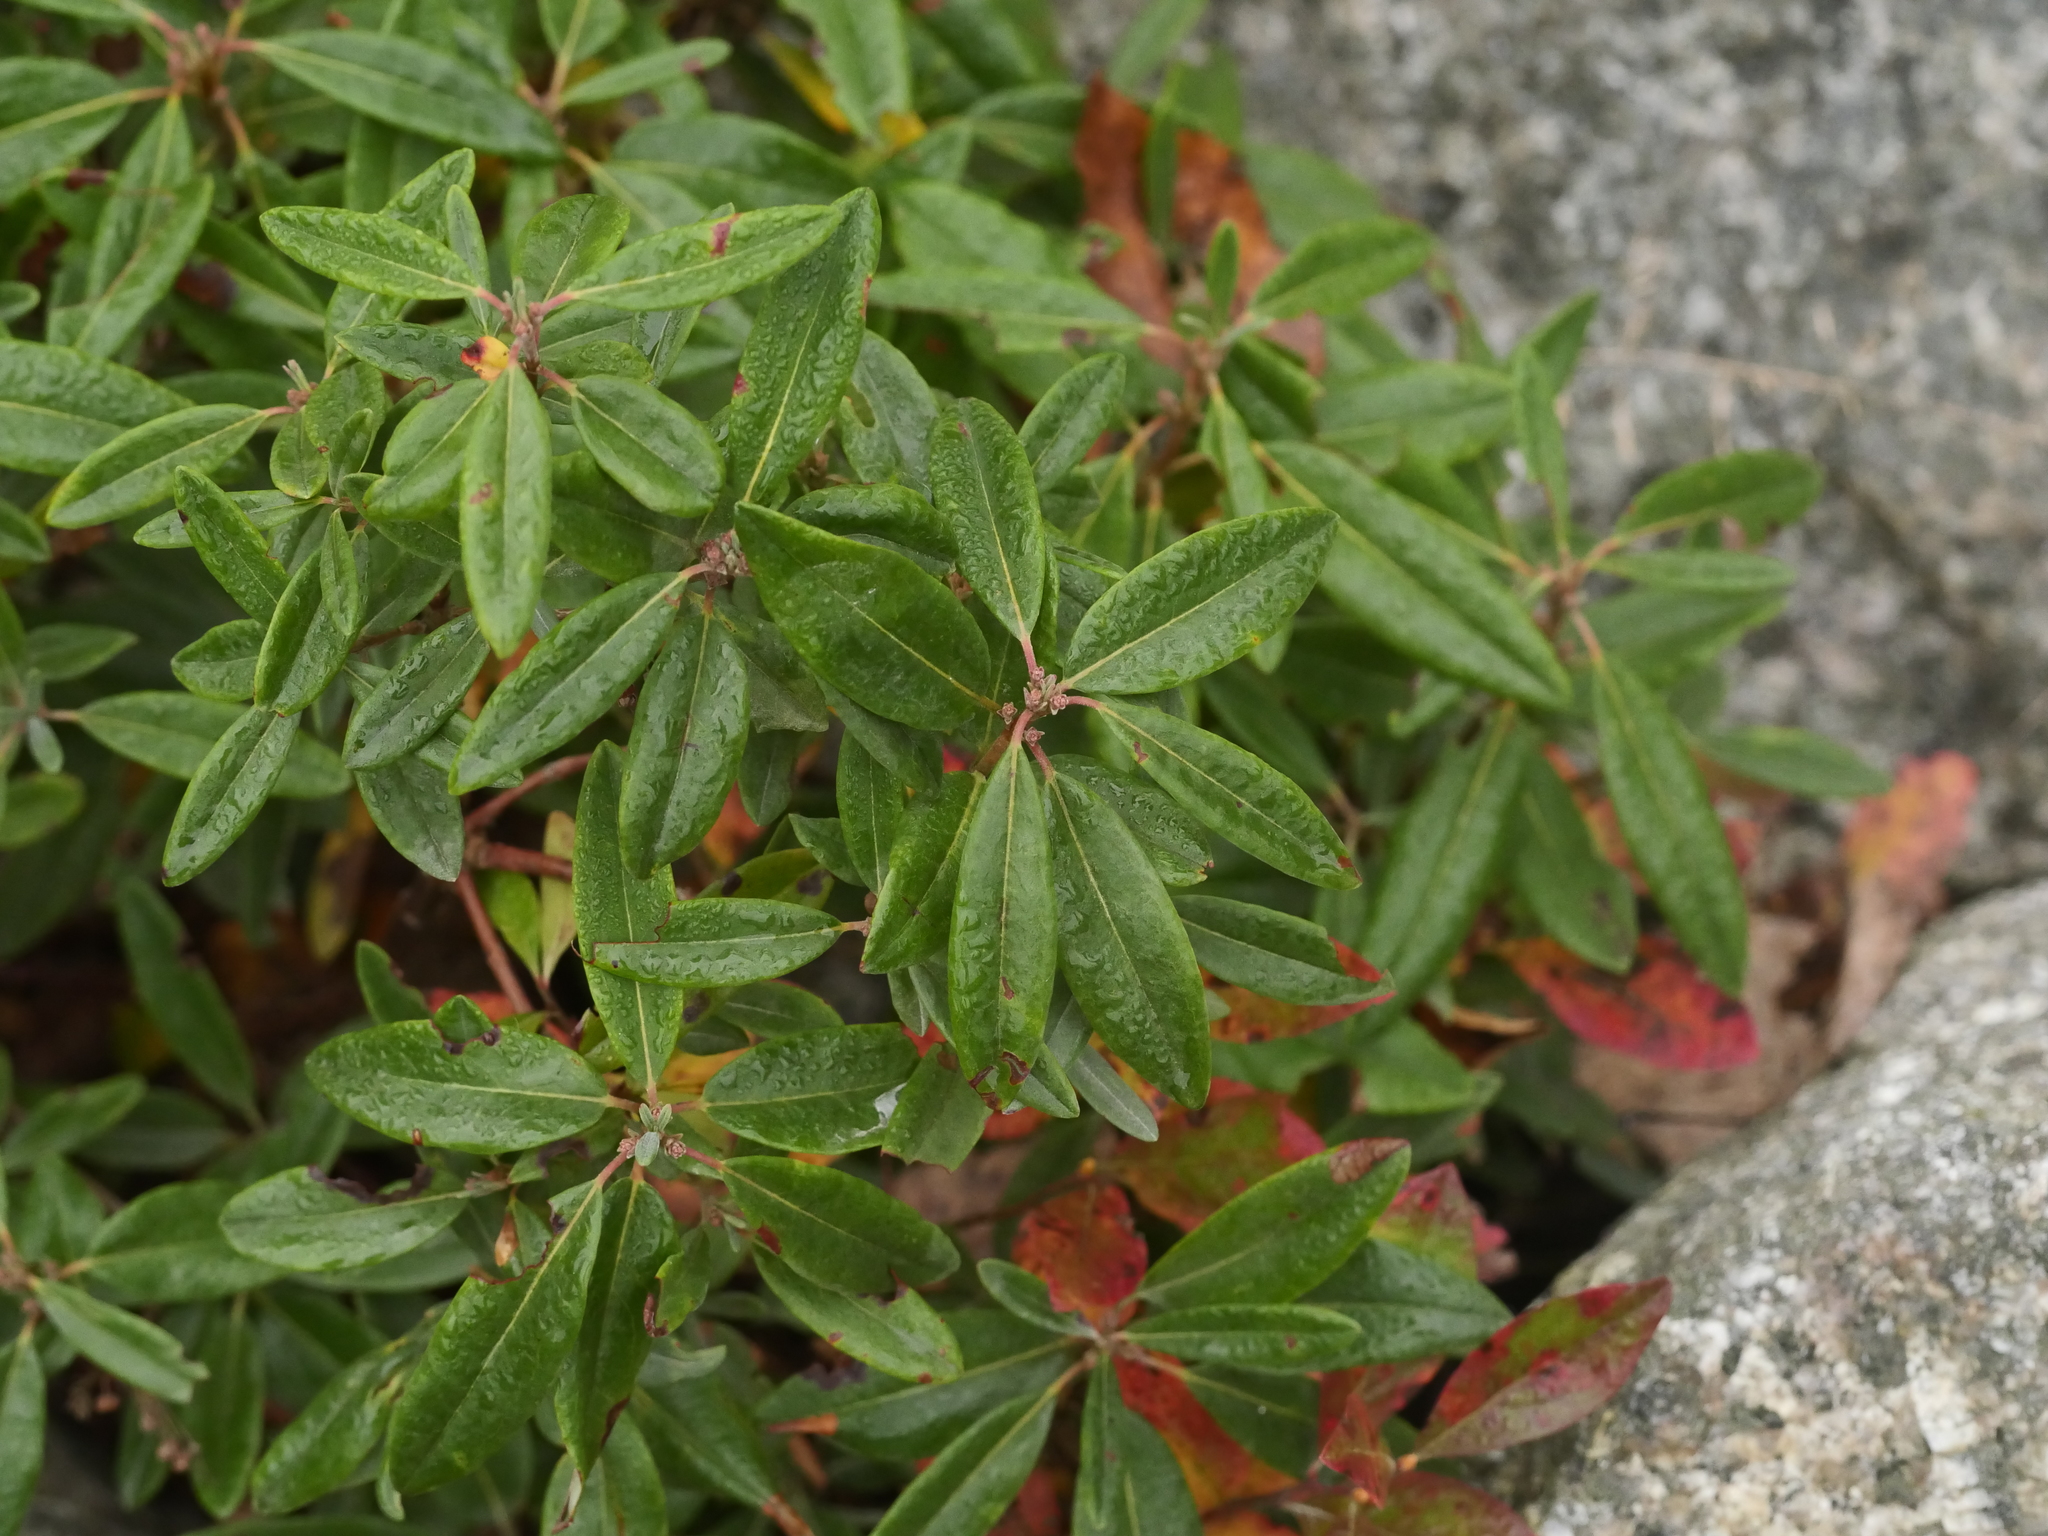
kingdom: Plantae
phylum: Tracheophyta
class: Magnoliopsida
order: Ericales
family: Ericaceae
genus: Kalmia
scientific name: Kalmia angustifolia
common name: Sheep-laurel
